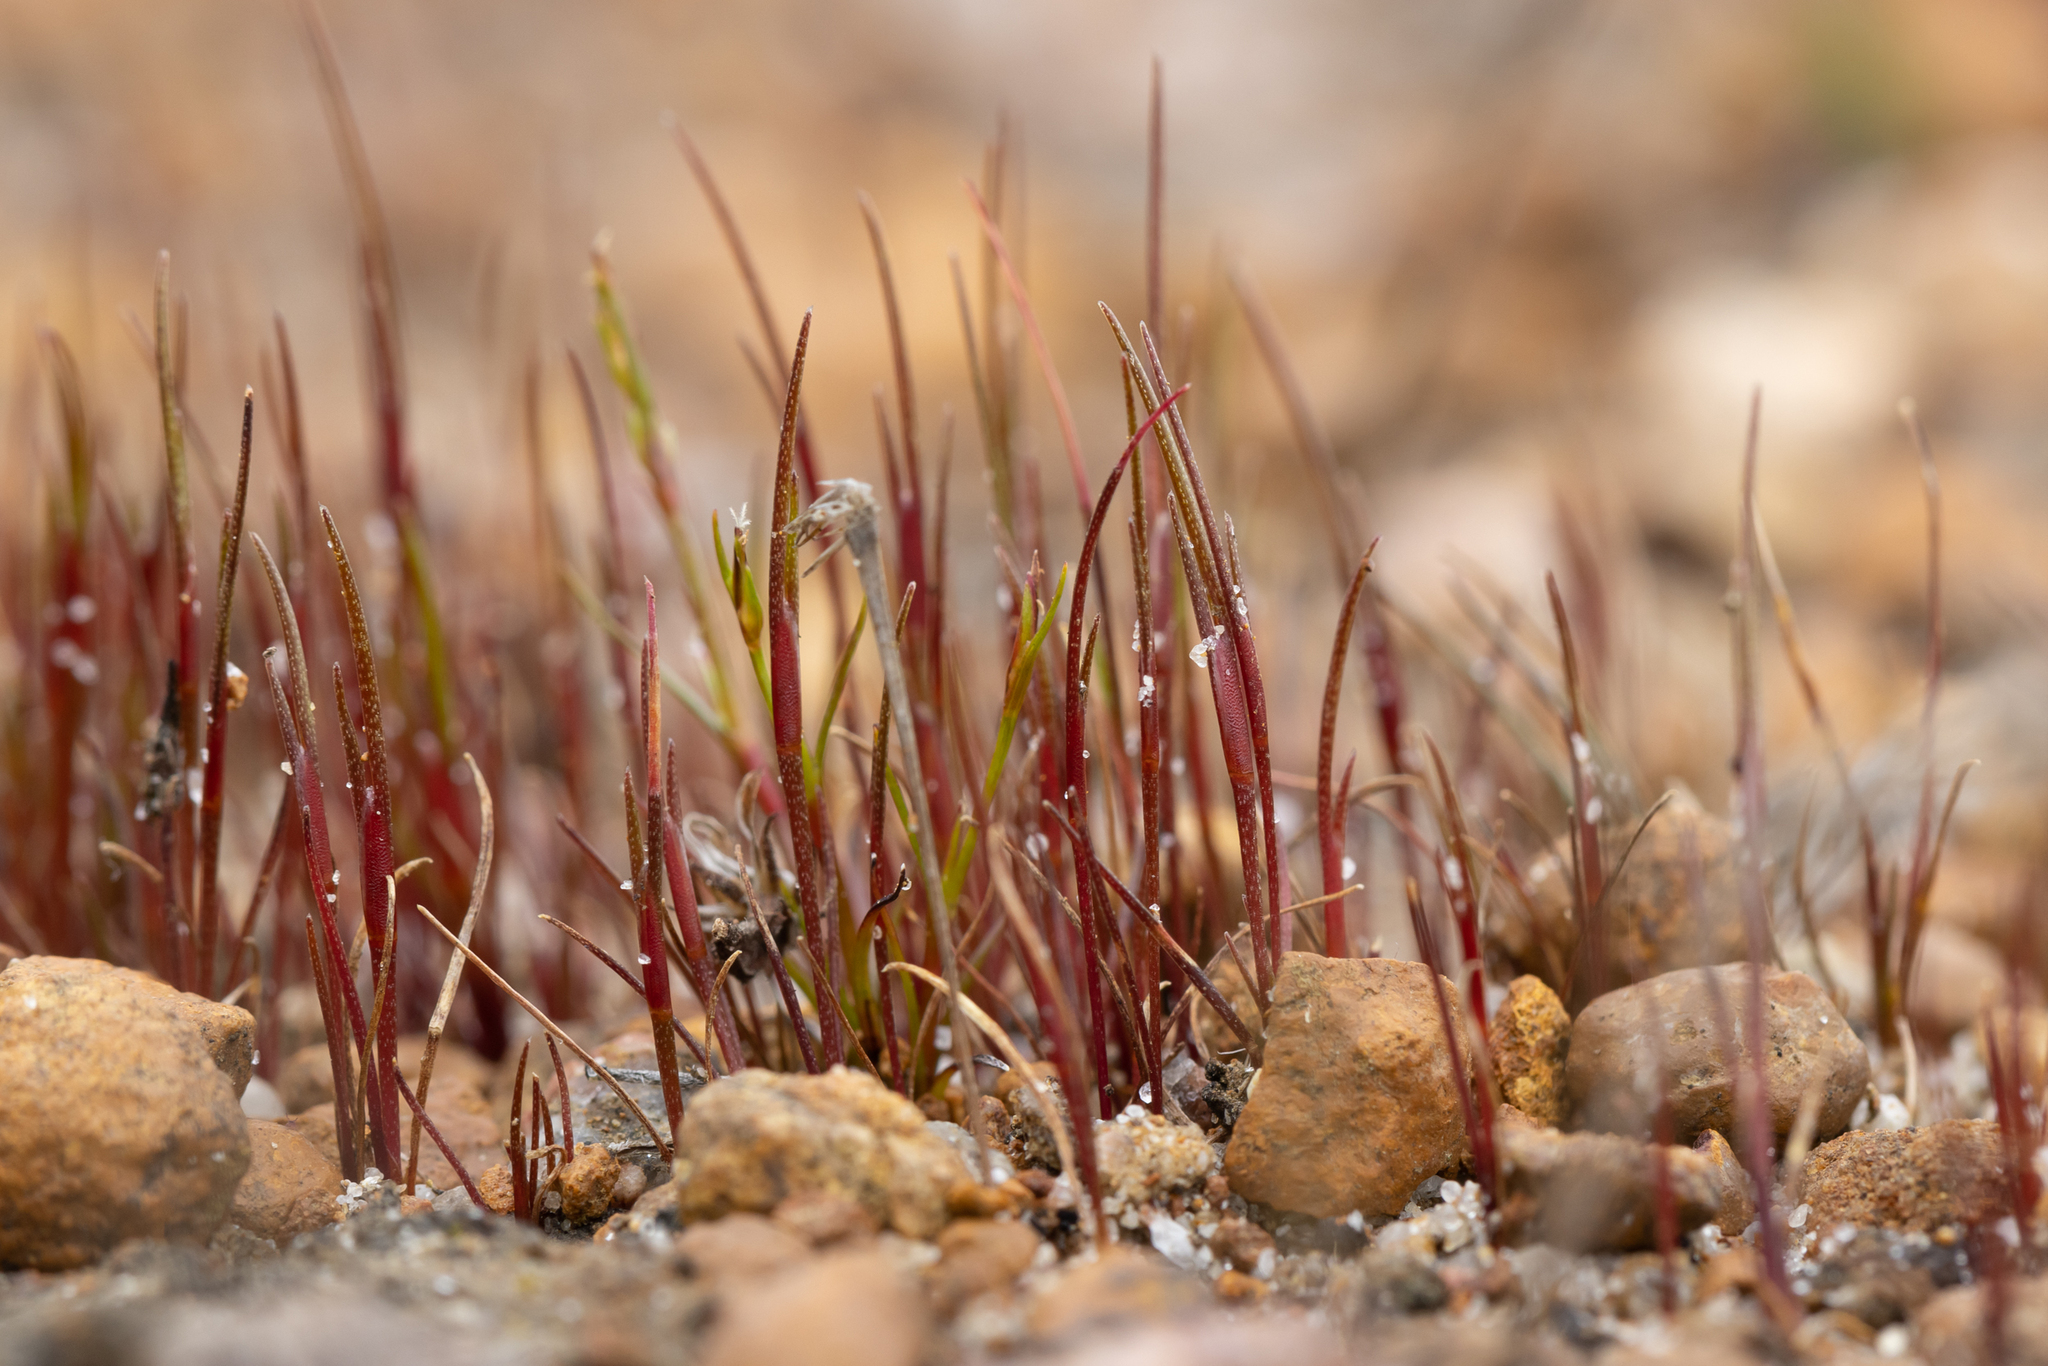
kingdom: Plantae
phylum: Tracheophyta
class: Liliopsida
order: Poales
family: Restionaceae
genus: Centrolepis
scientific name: Centrolepis aristata
